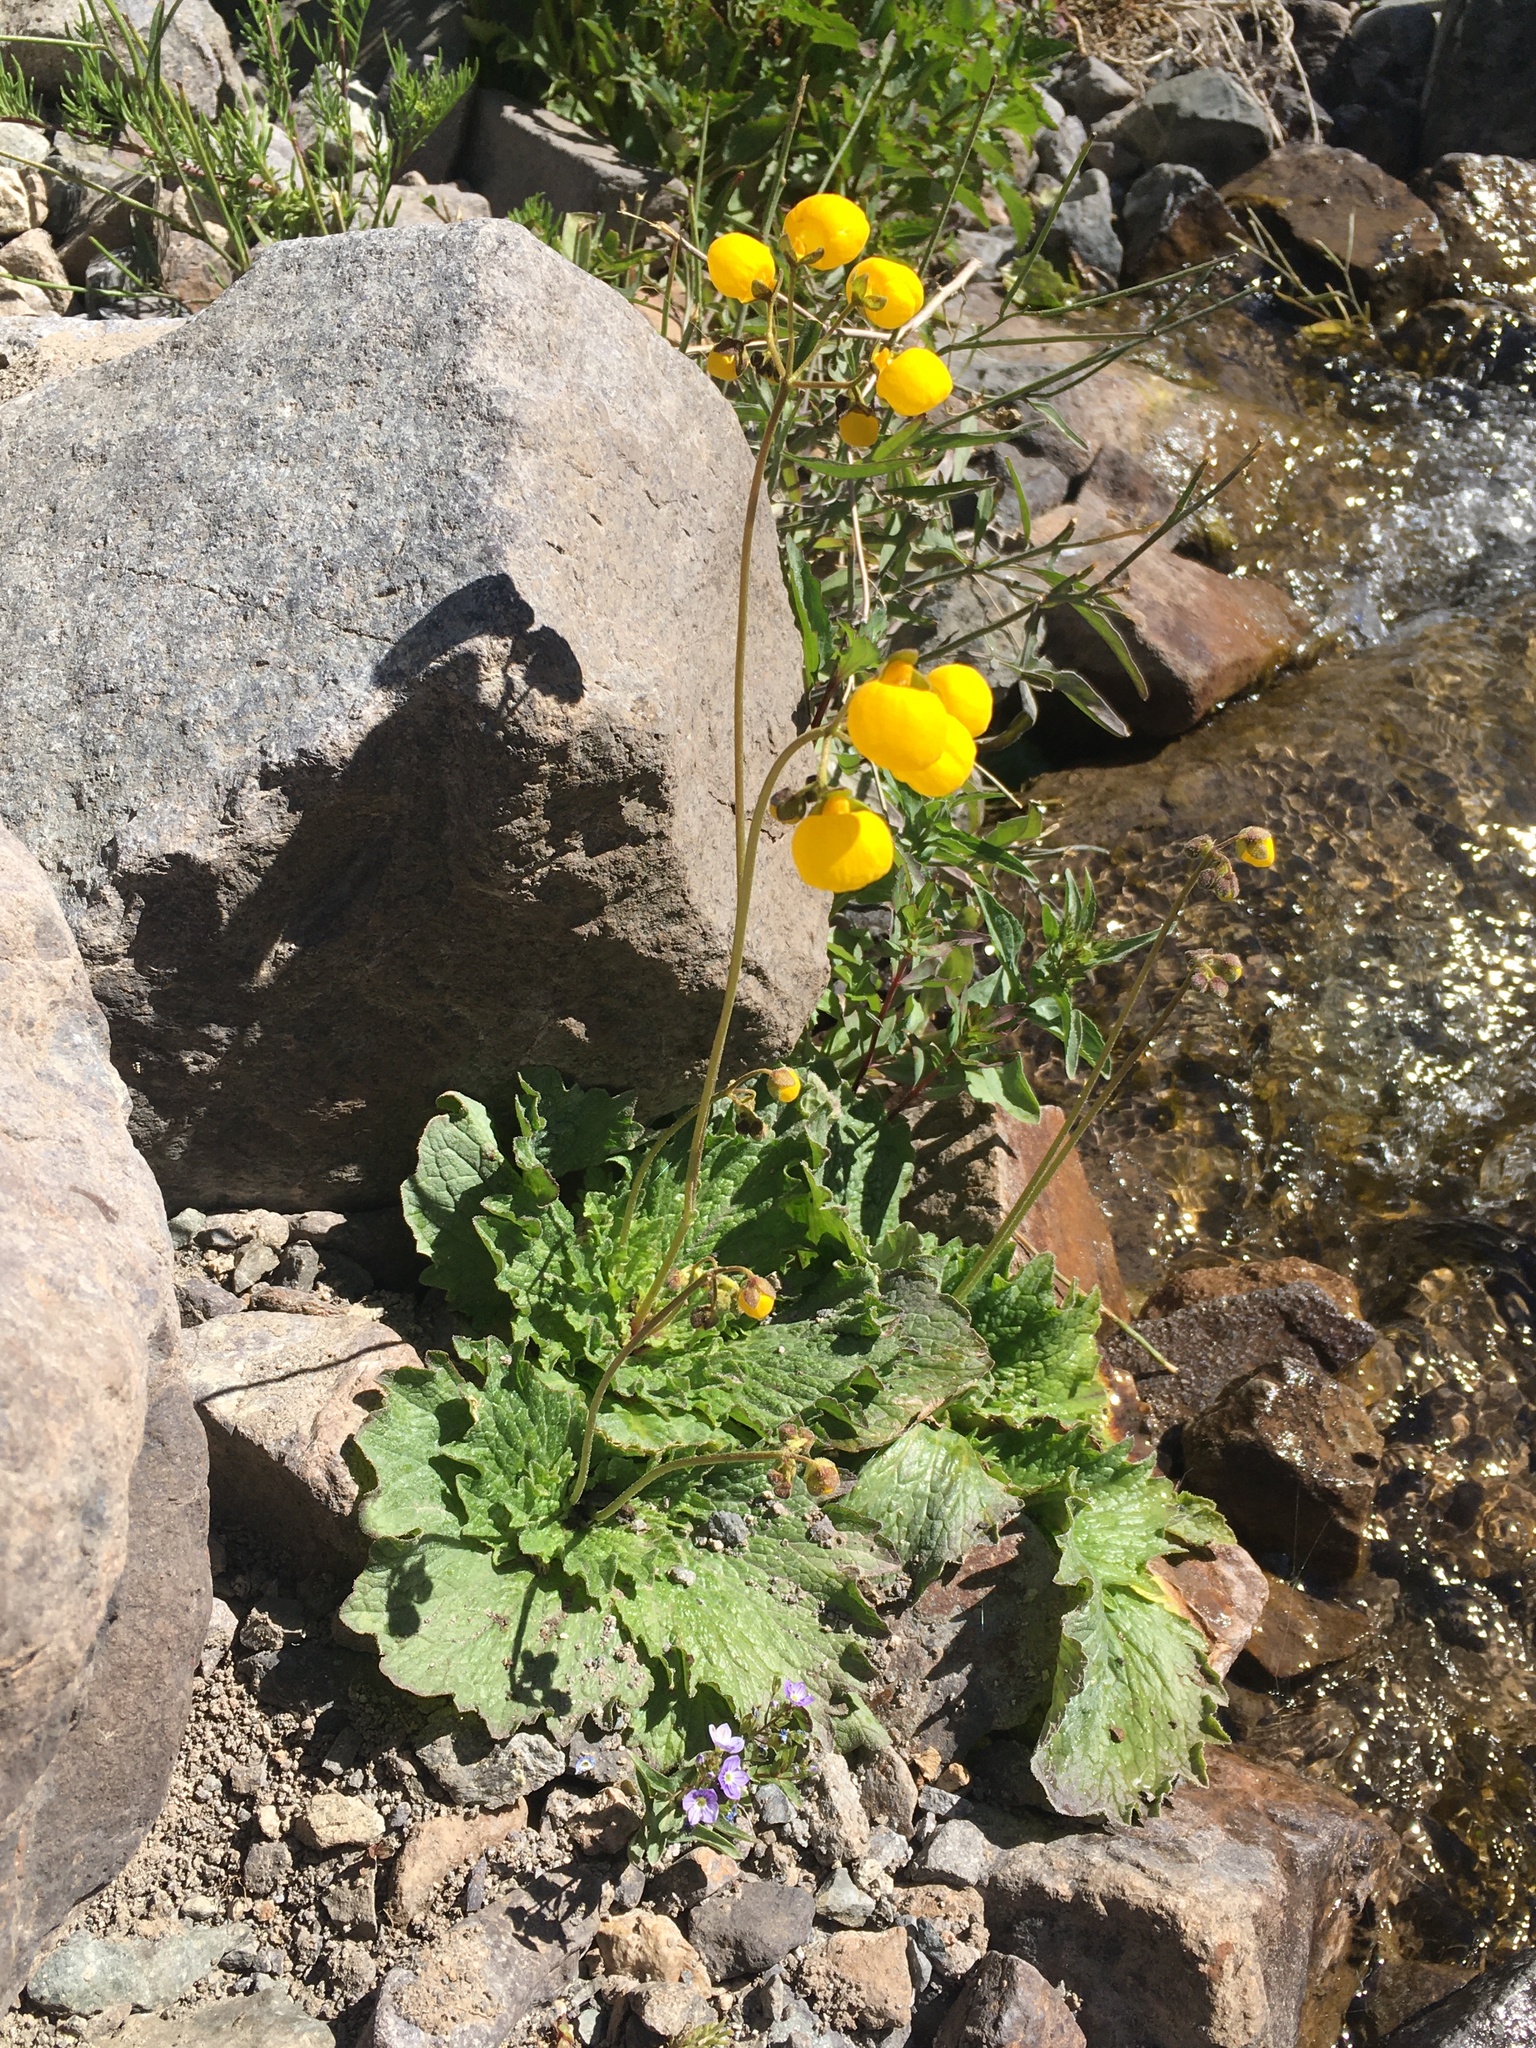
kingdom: Plantae
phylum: Tracheophyta
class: Magnoliopsida
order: Lamiales
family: Calceolariaceae
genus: Calceolaria
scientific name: Calceolaria filicaulis
